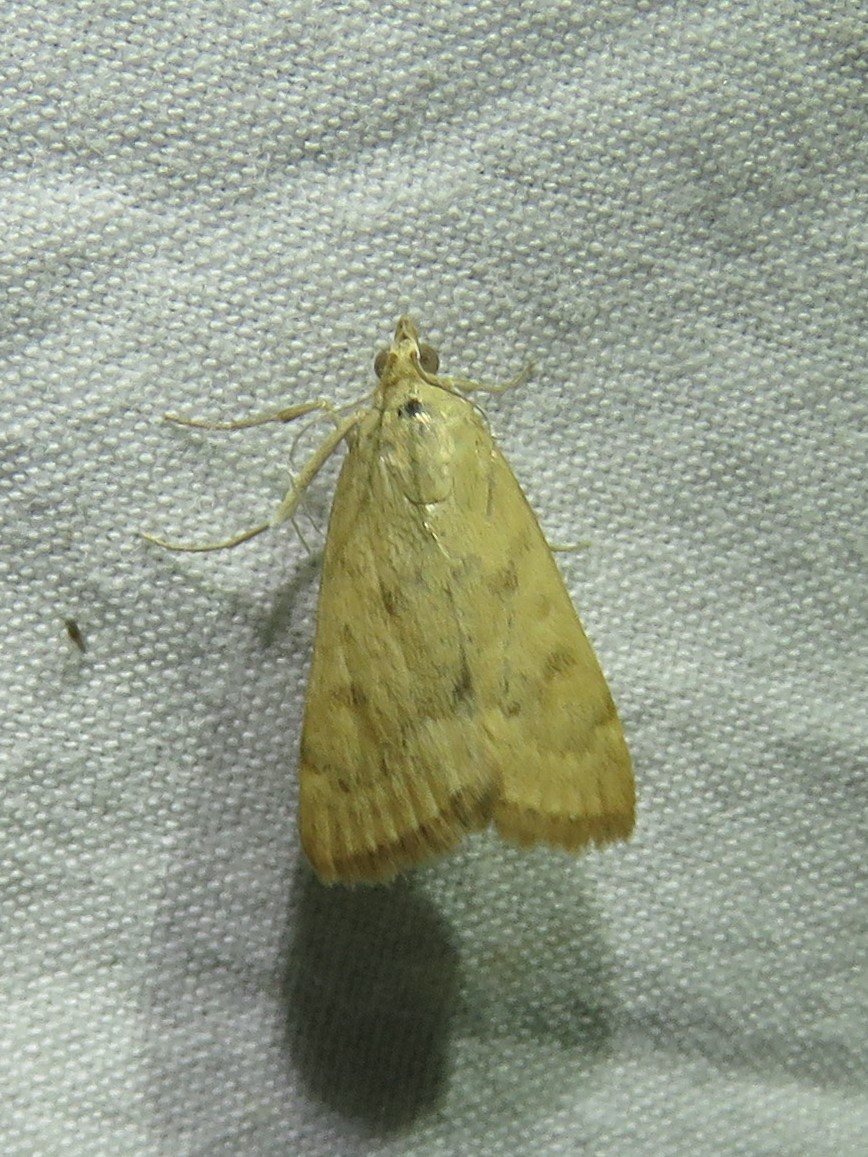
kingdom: Animalia
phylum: Arthropoda
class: Insecta
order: Lepidoptera
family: Crambidae
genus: Achyra
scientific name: Achyra rantalis
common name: Garden webworm
